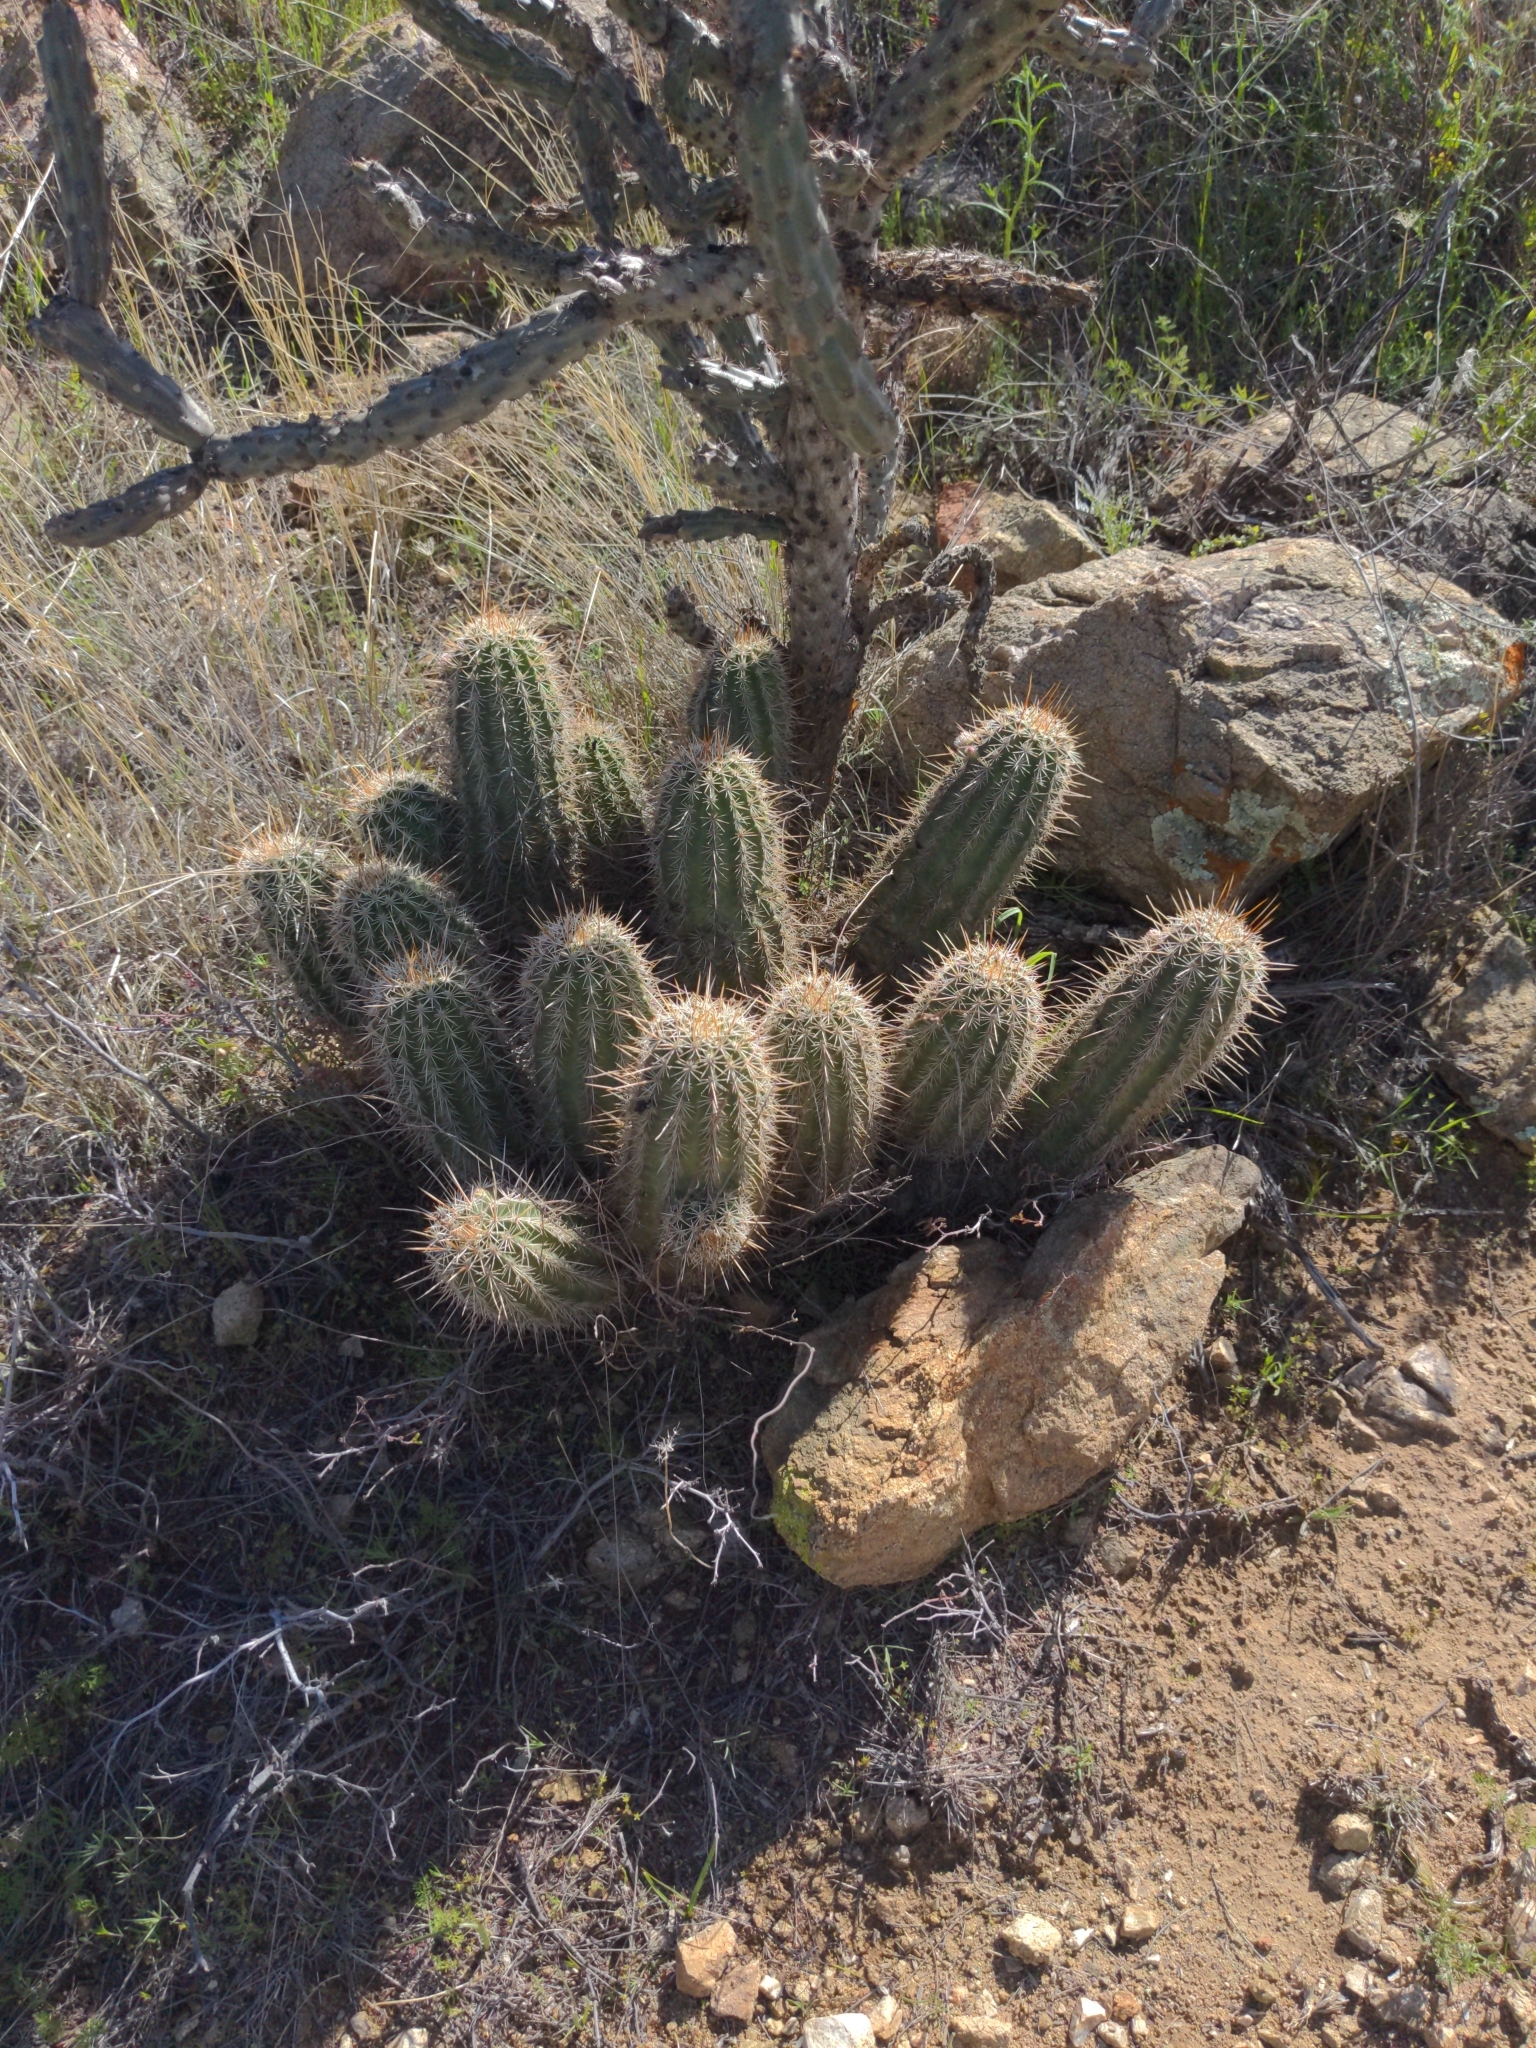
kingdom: Plantae
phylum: Tracheophyta
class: Magnoliopsida
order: Caryophyllales
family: Cactaceae
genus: Echinocereus
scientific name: Echinocereus fasciculatus
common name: Bundle hedgehog
